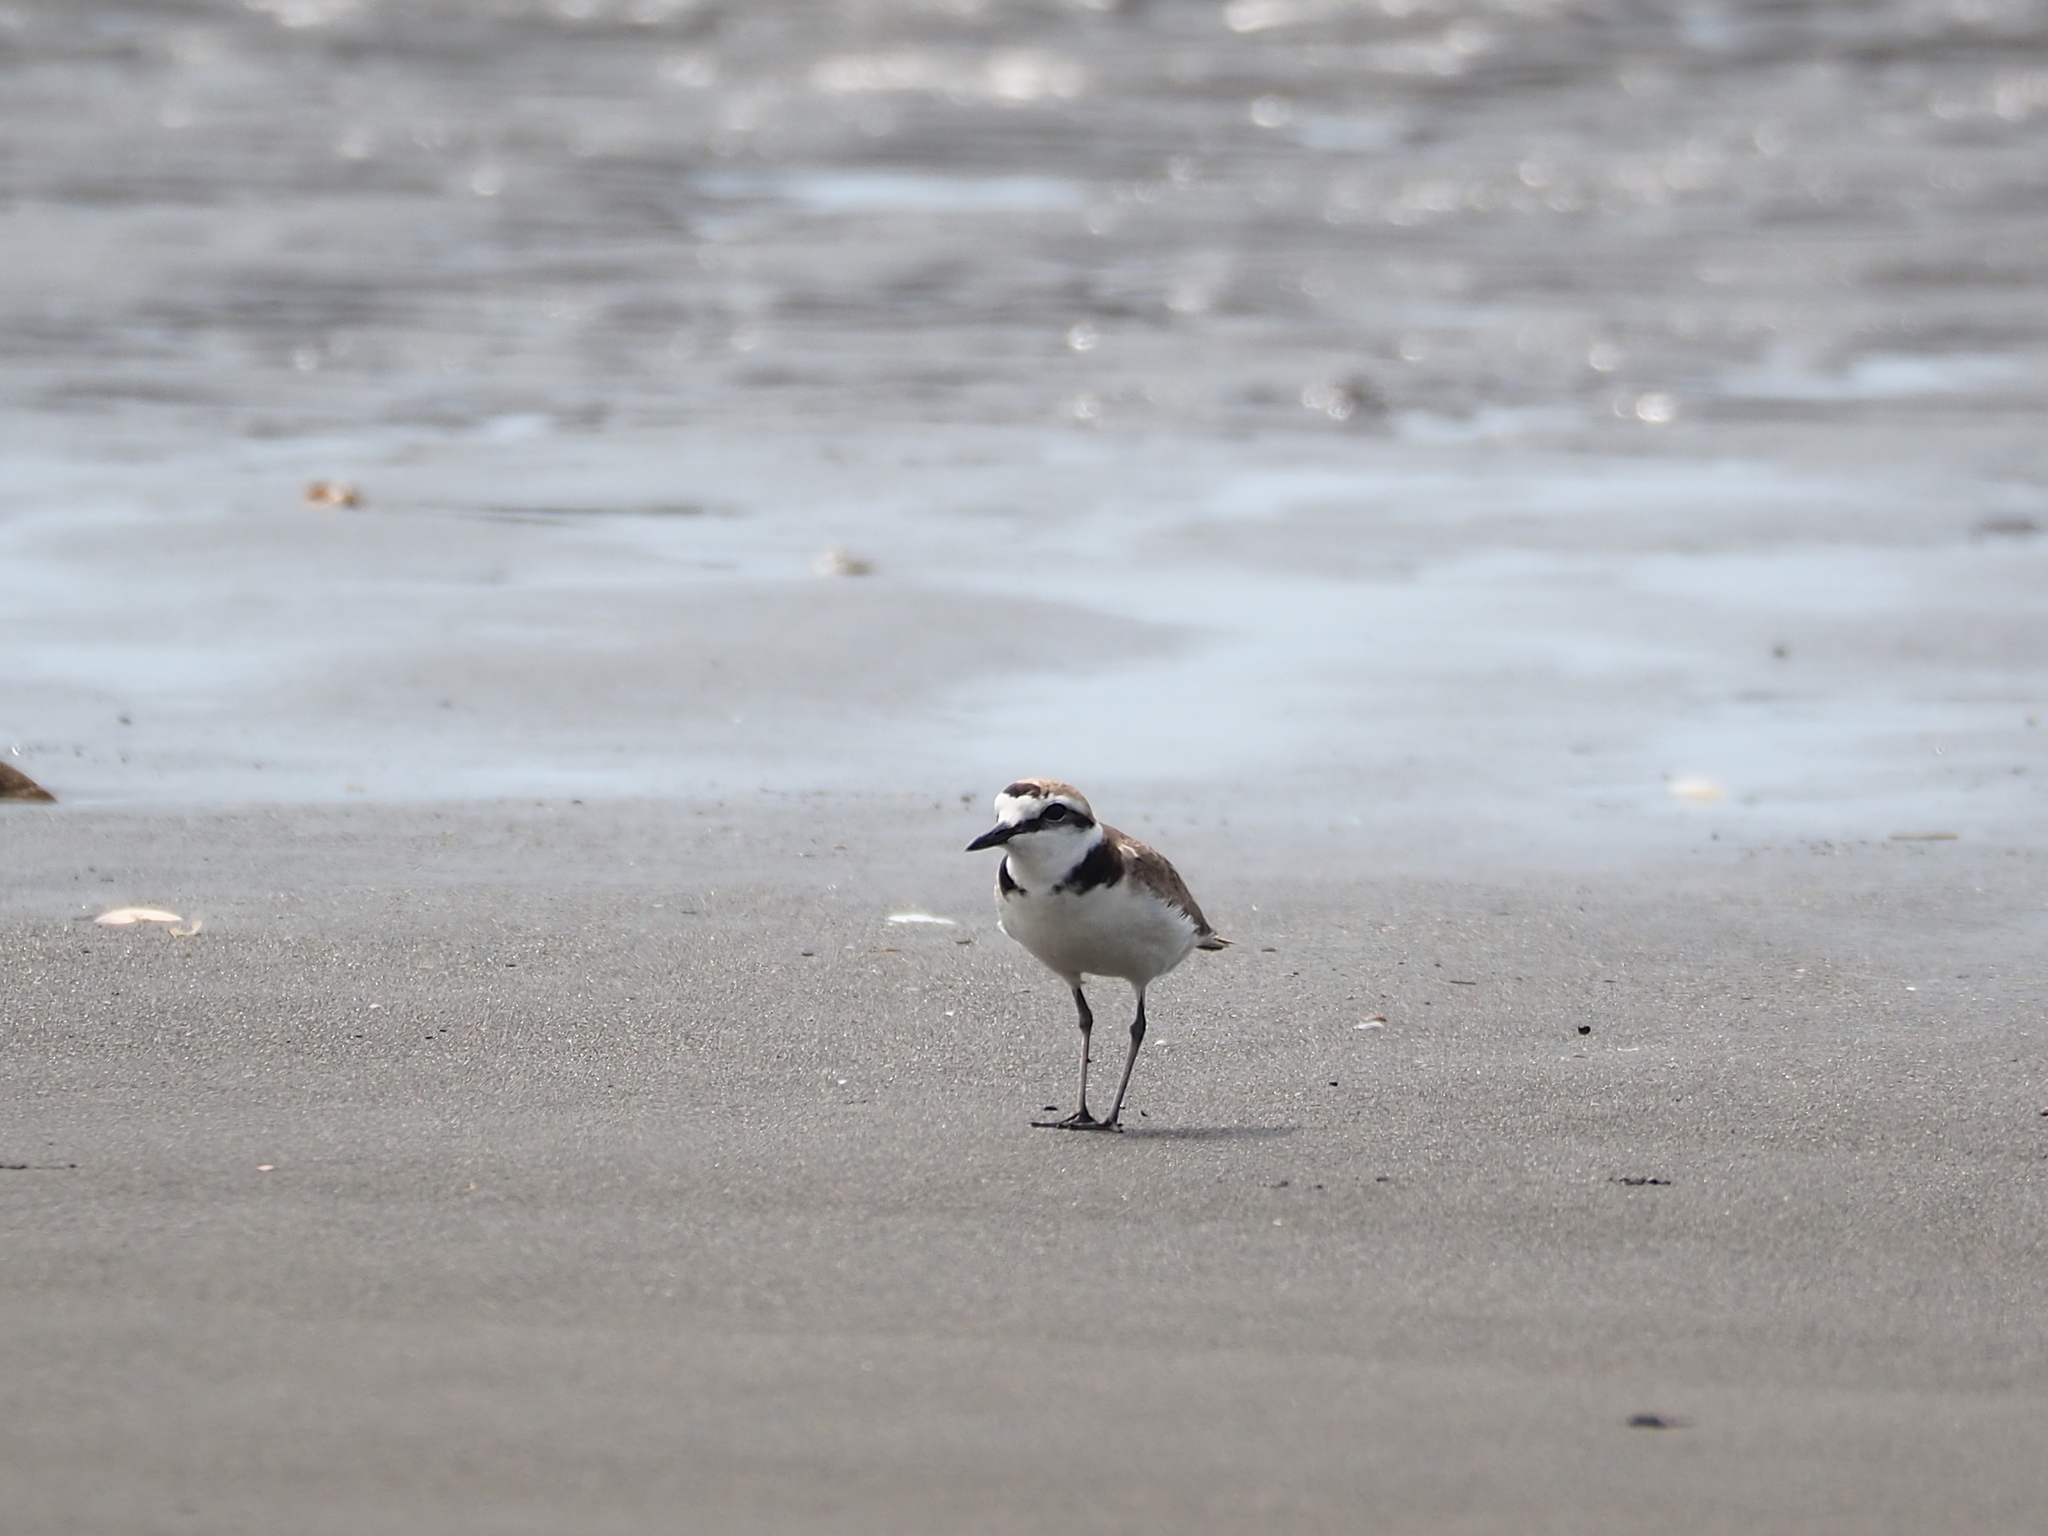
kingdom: Animalia
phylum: Chordata
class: Aves
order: Charadriiformes
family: Charadriidae
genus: Charadrius
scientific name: Charadrius alexandrinus
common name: Kentish plover
